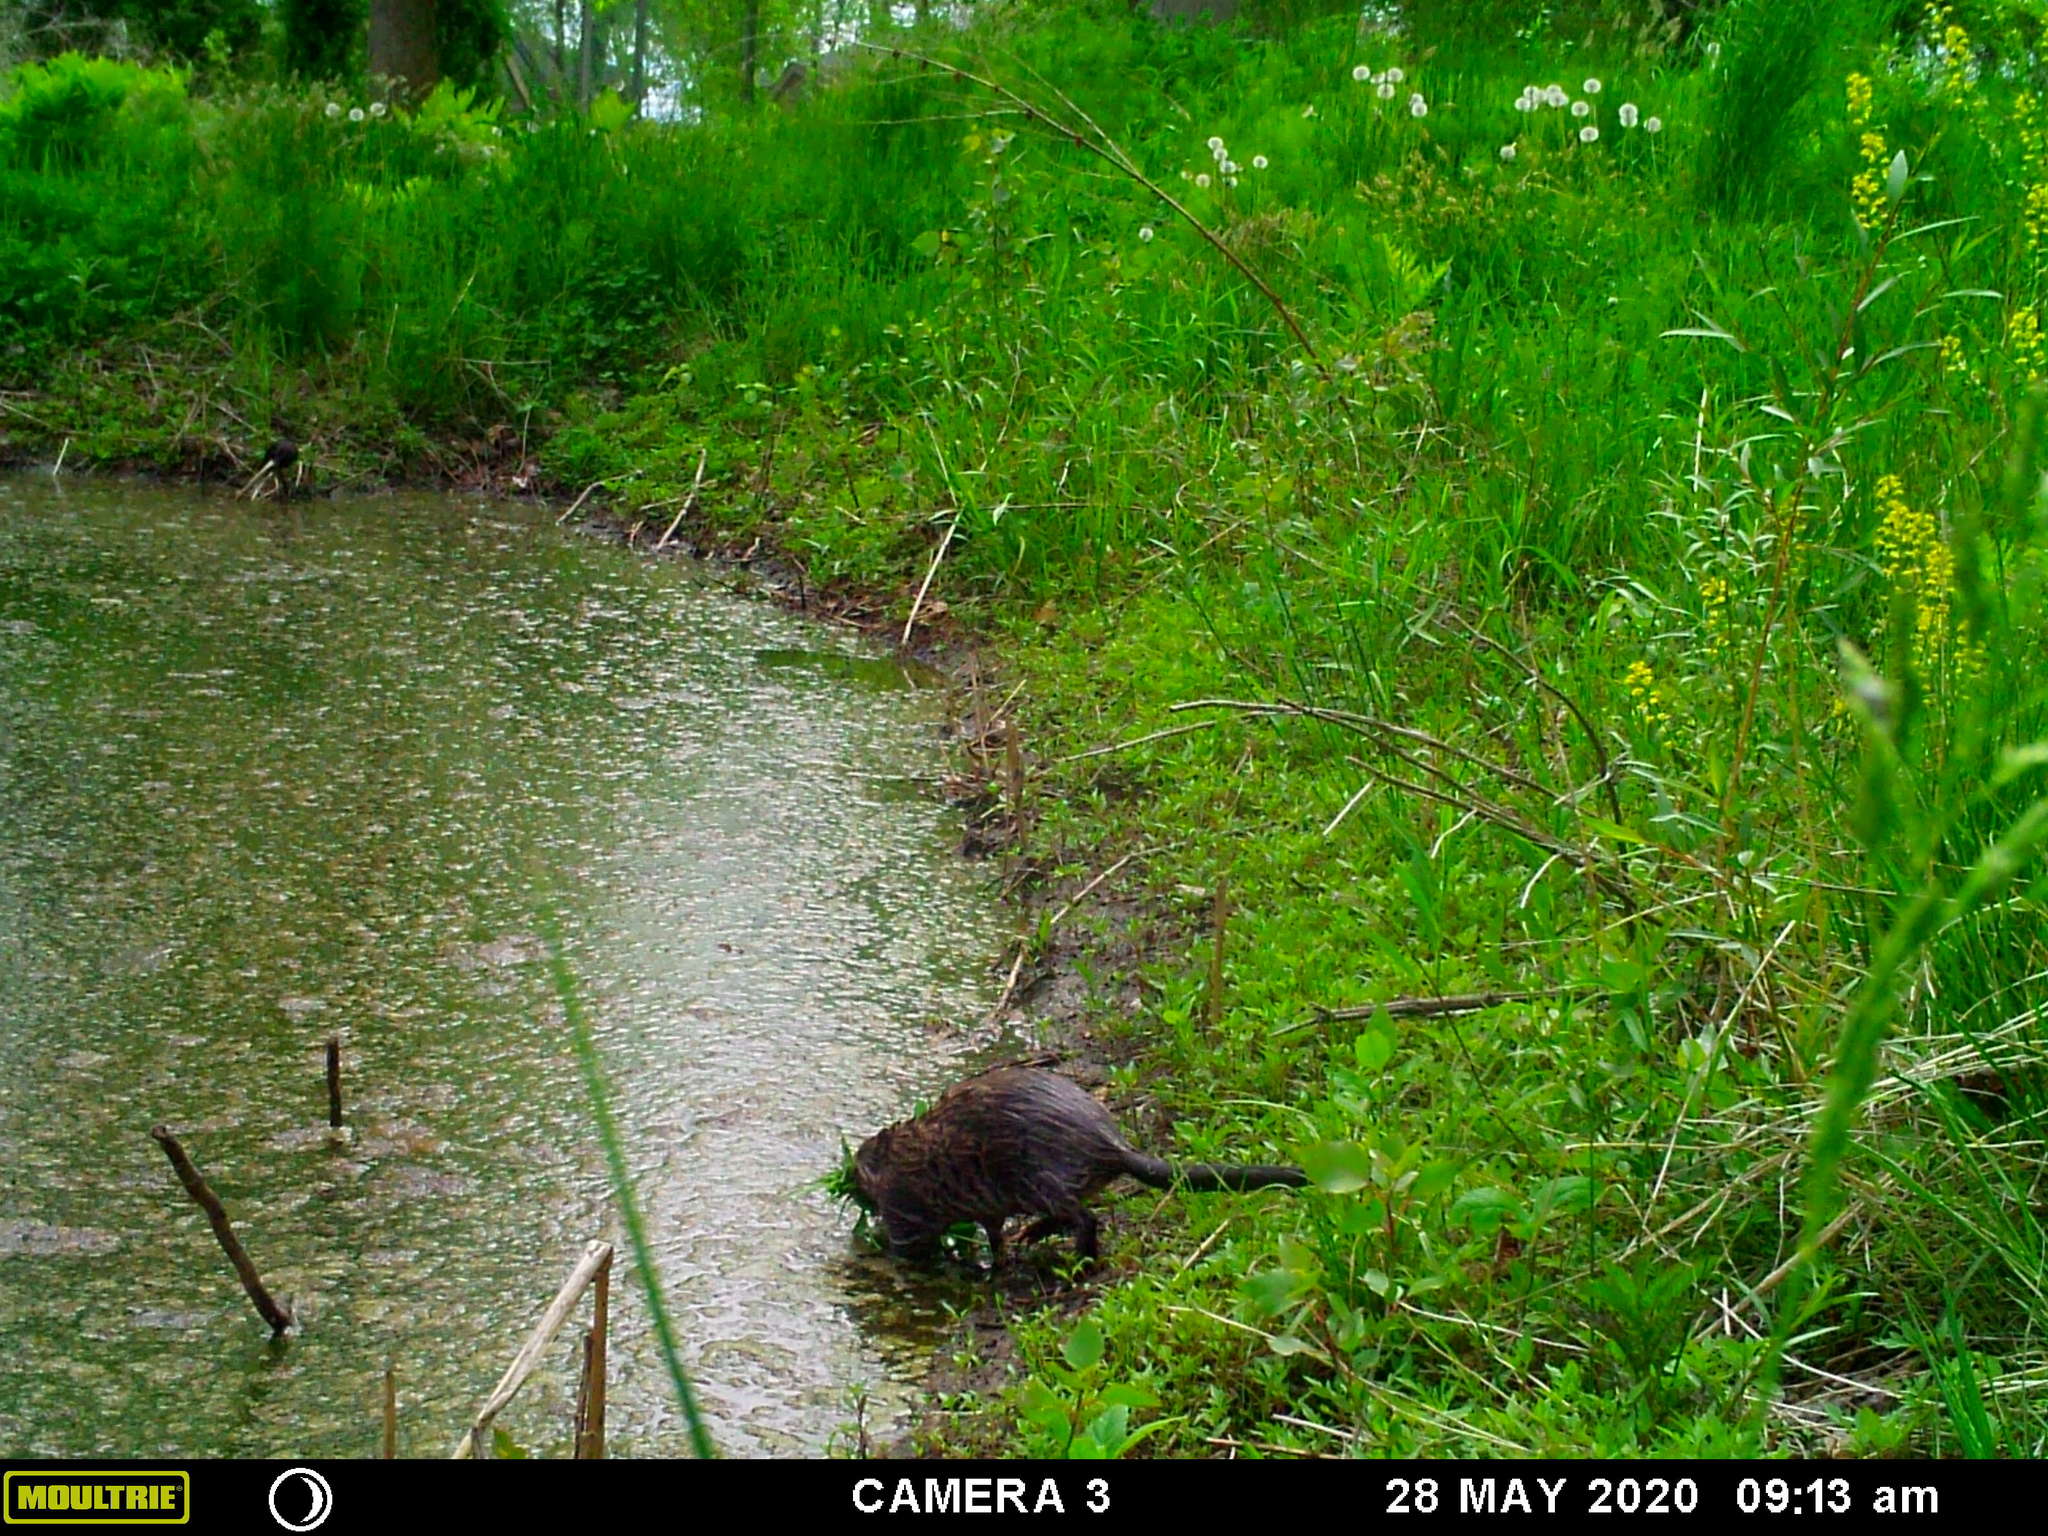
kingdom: Animalia
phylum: Chordata
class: Mammalia
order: Rodentia
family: Cricetidae
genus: Ondatra
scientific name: Ondatra zibethicus
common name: Muskrat
